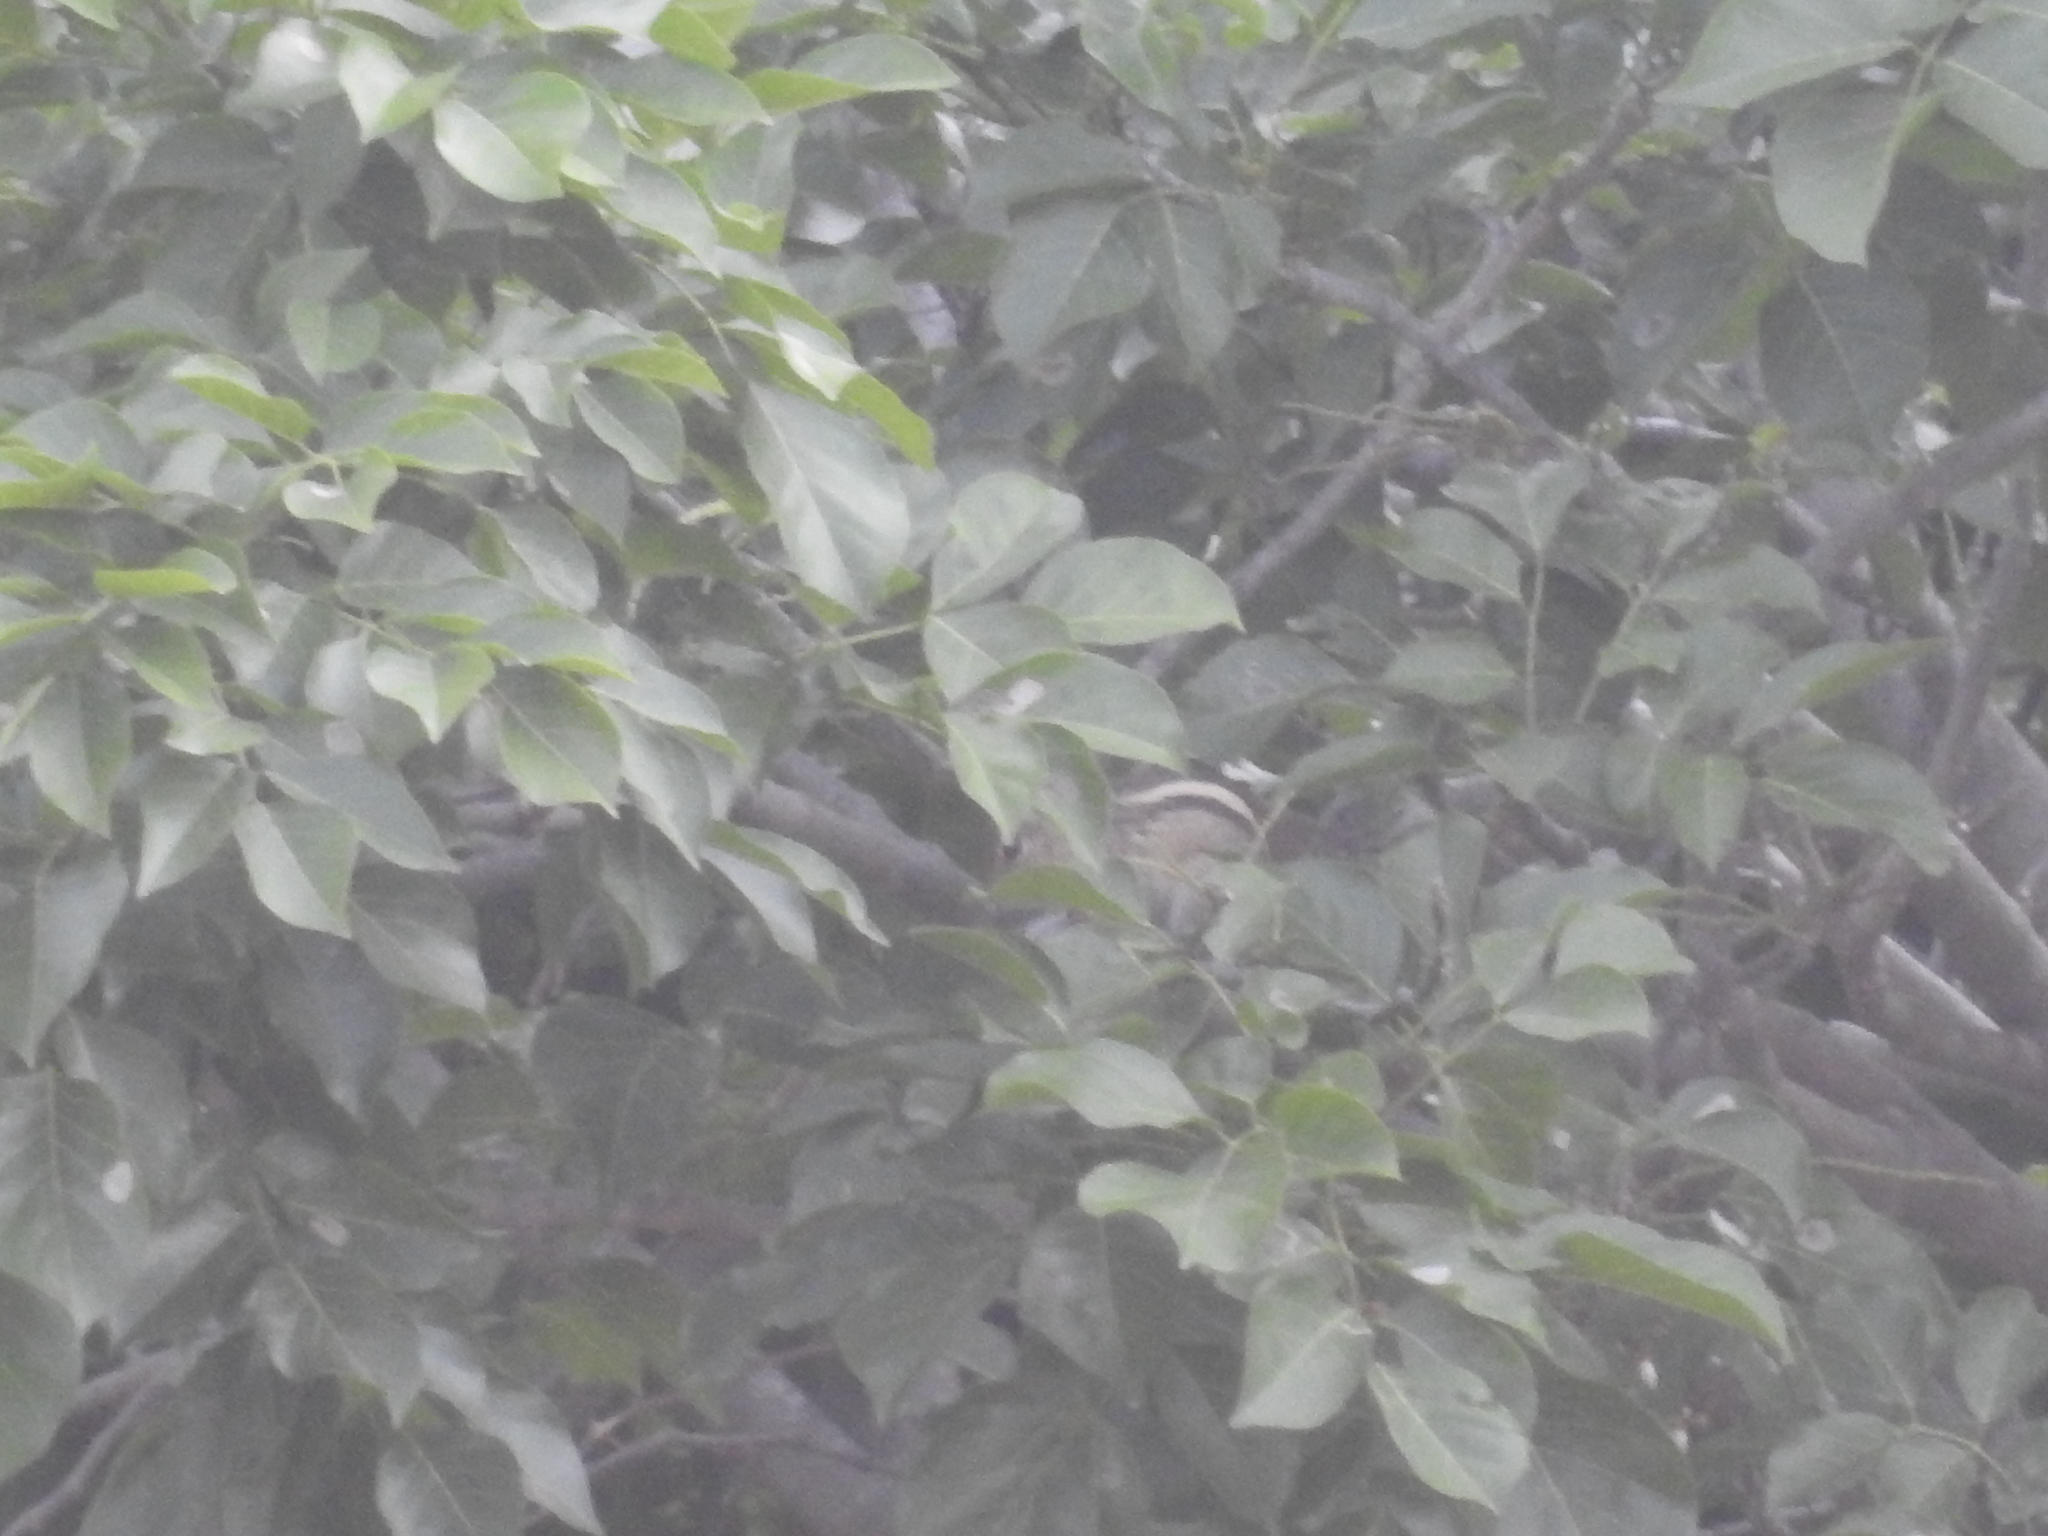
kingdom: Animalia
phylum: Chordata
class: Mammalia
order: Rodentia
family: Sciuridae
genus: Funambulus
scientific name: Funambulus palmarum
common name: Indian palm squirrel
